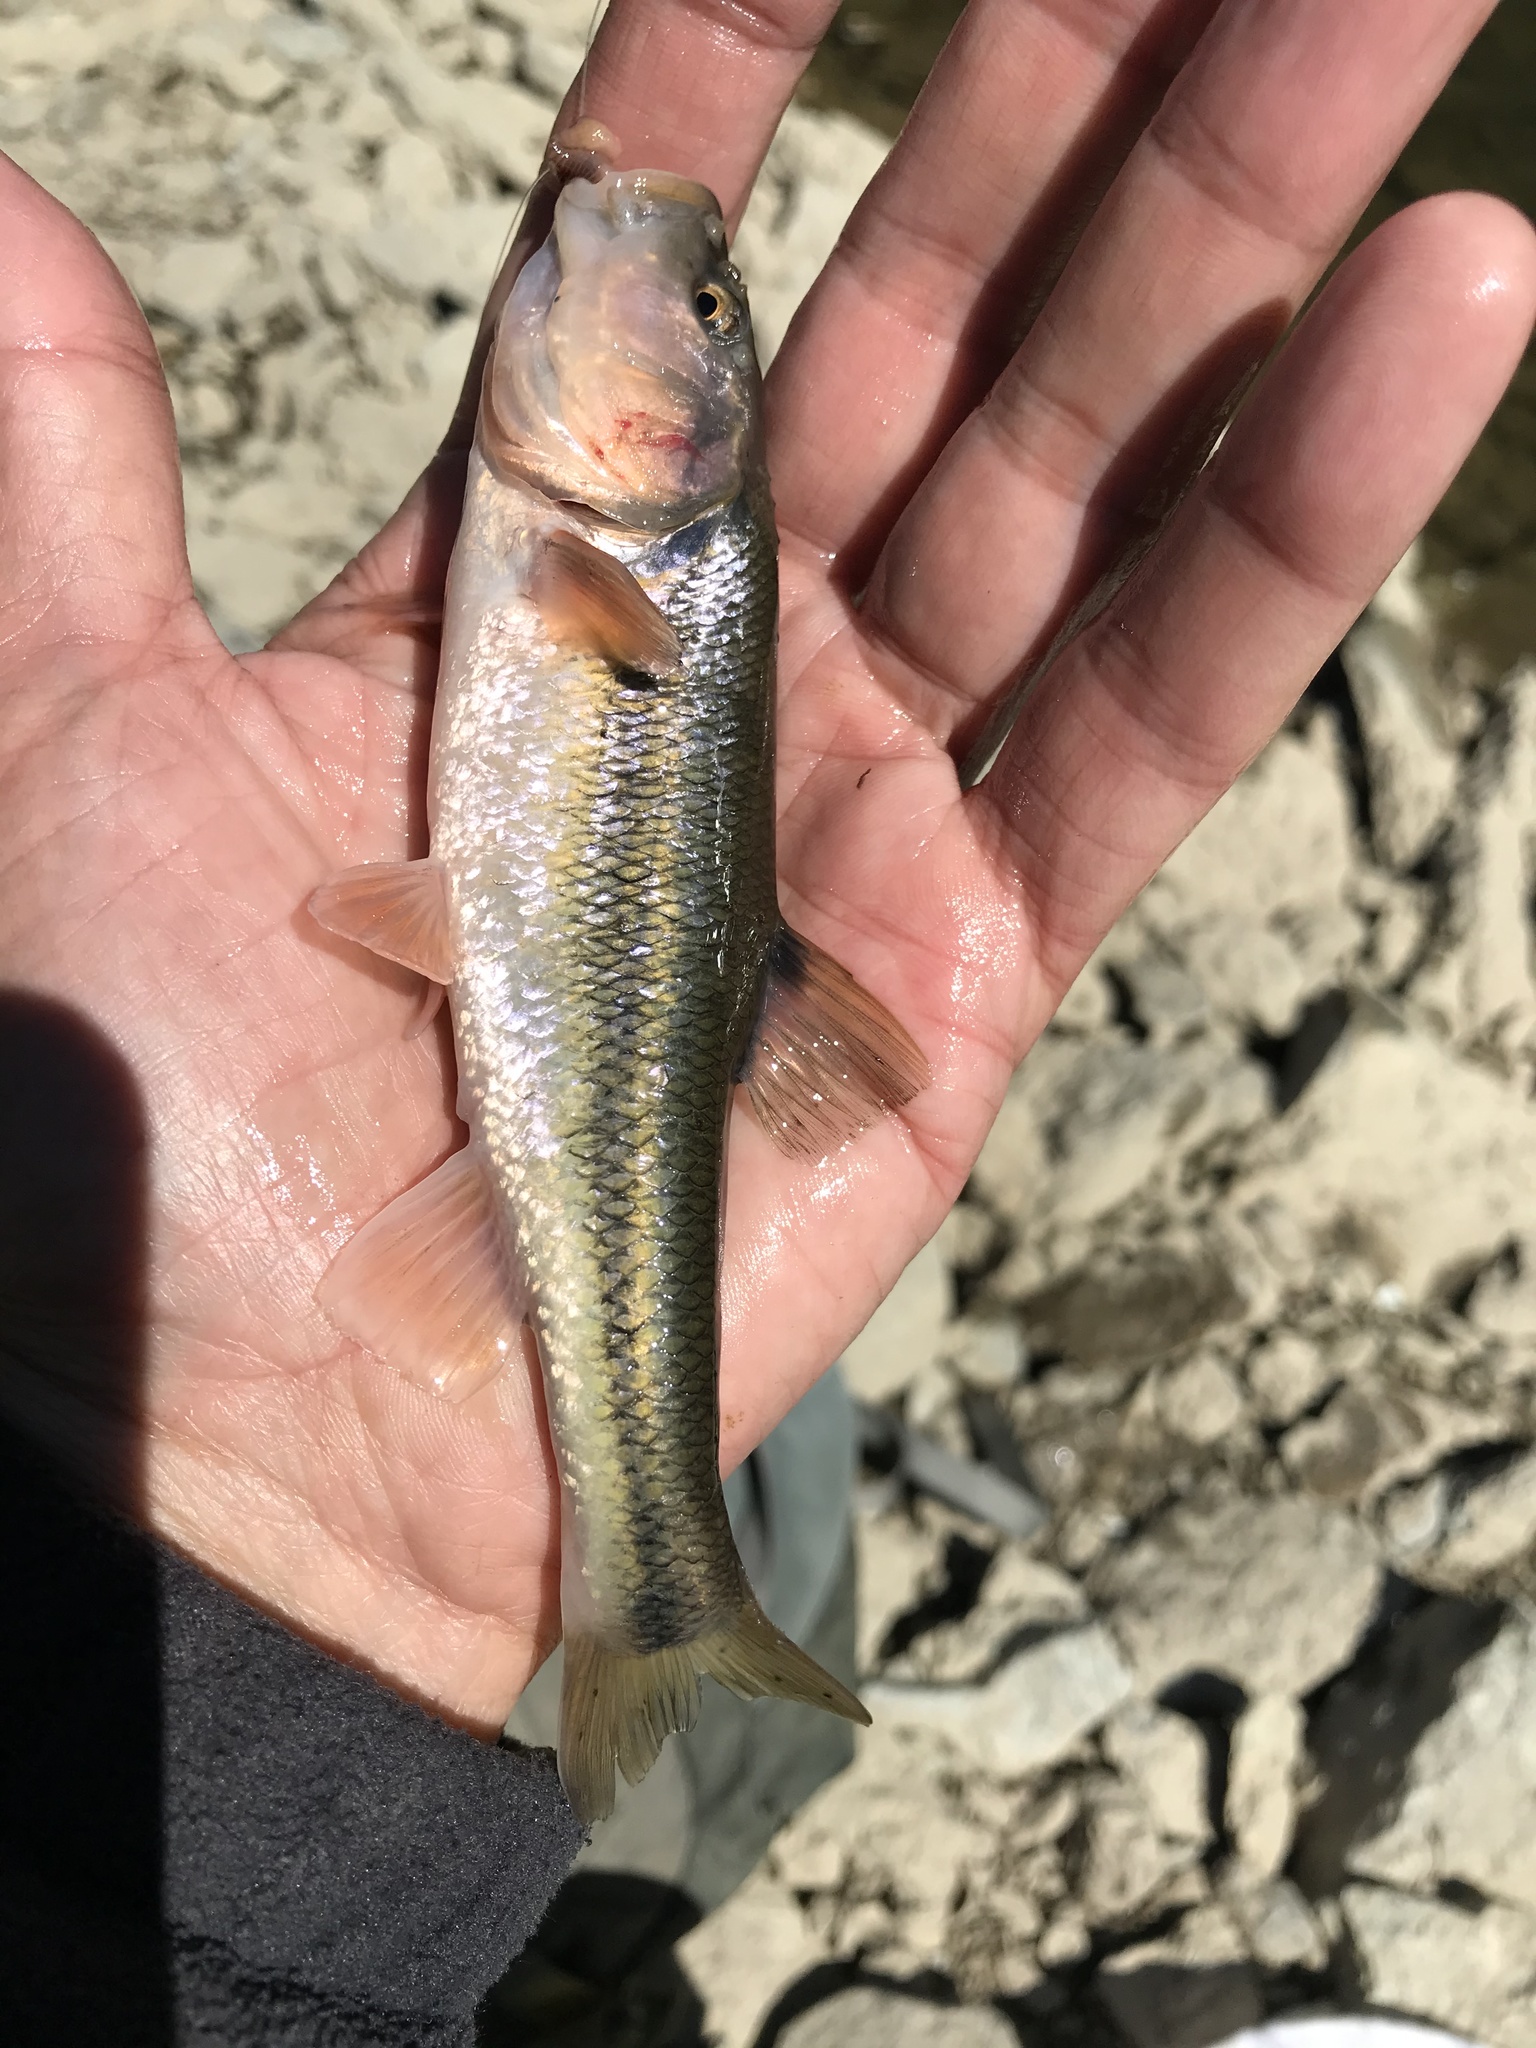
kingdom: Animalia
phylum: Chordata
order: Cypriniformes
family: Cyprinidae
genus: Semotilus
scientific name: Semotilus atromaculatus
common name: Creek chub
